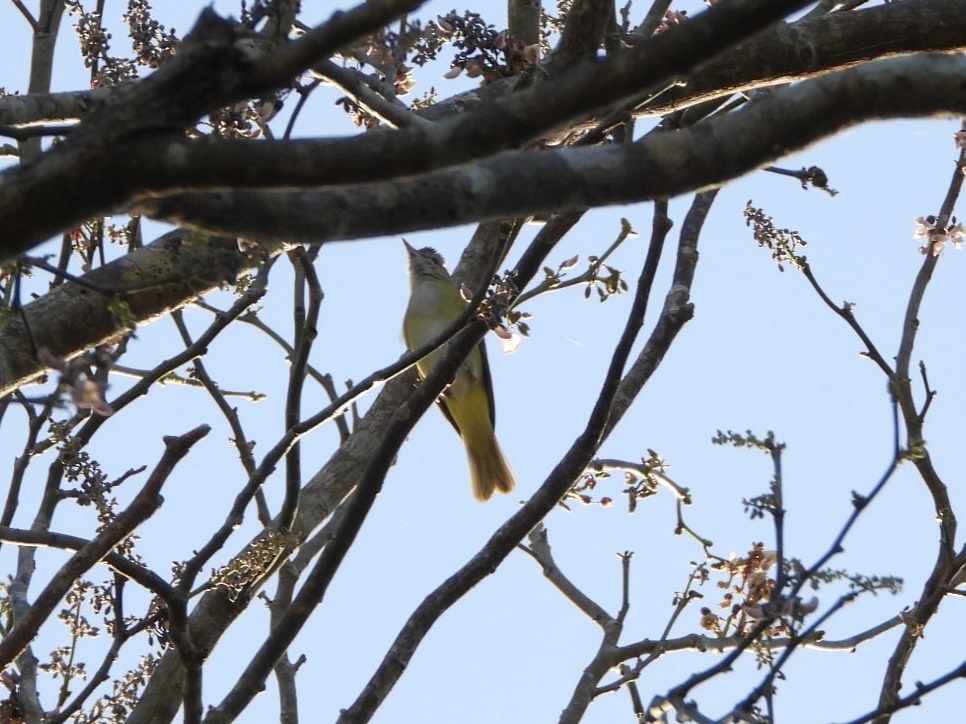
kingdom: Animalia
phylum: Chordata
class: Aves
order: Passeriformes
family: Vireonidae
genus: Vireo
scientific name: Vireo flavoviridis
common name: Yellow-green vireo
